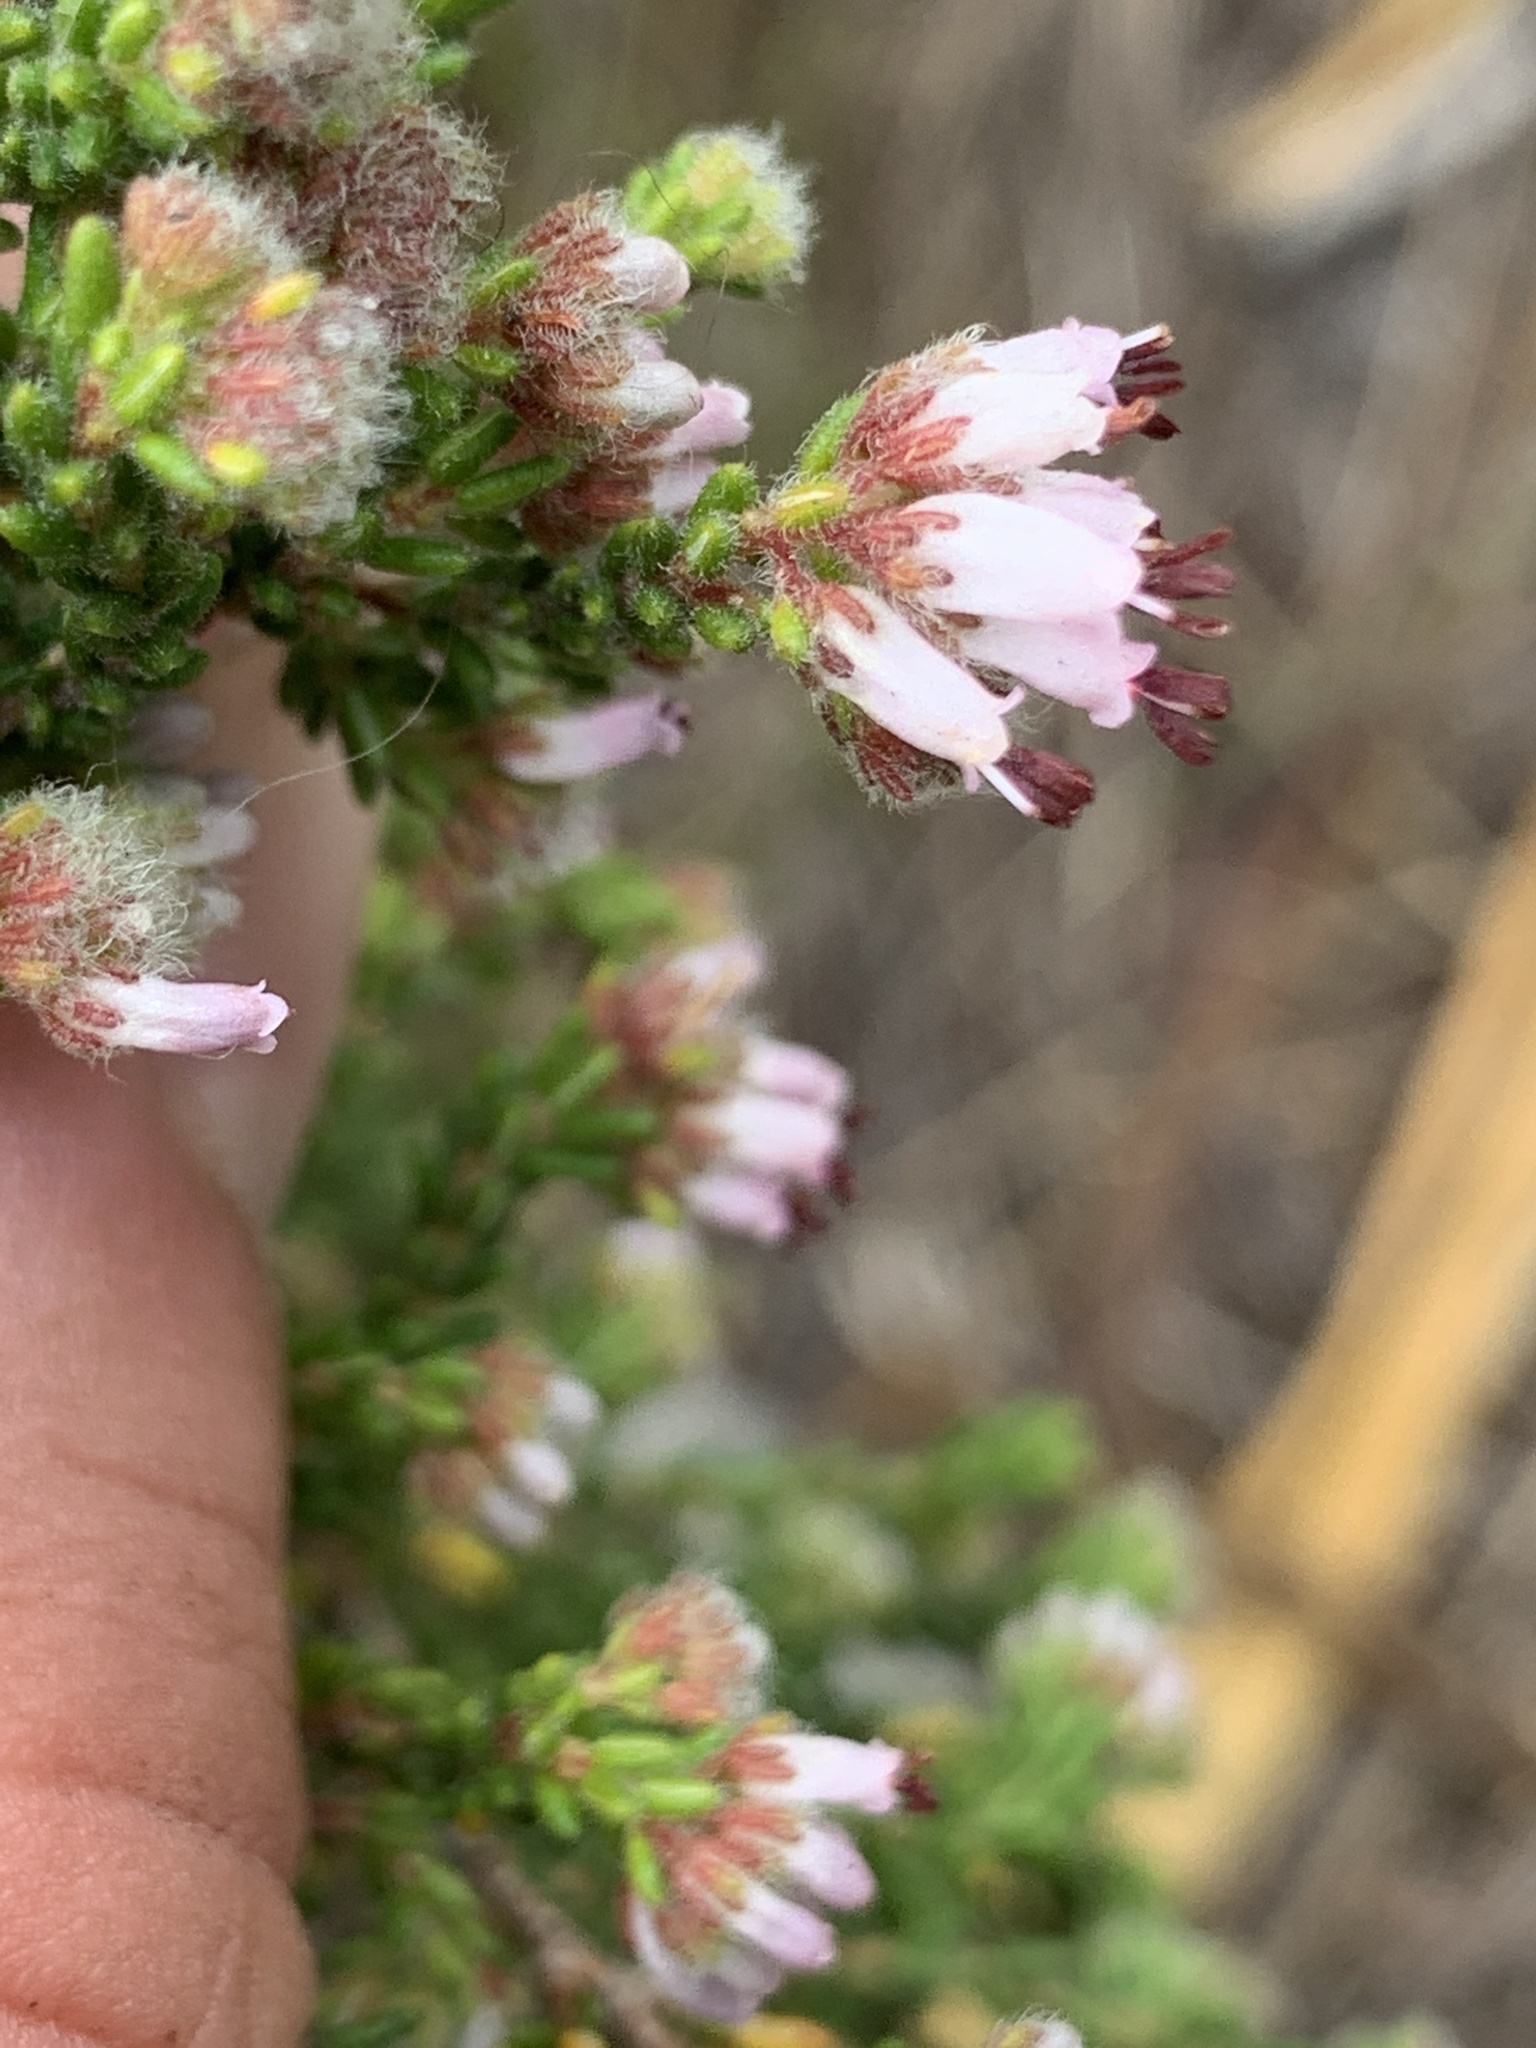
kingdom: Plantae
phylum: Tracheophyta
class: Magnoliopsida
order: Ericales
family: Ericaceae
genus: Erica
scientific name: Erica ericoides
